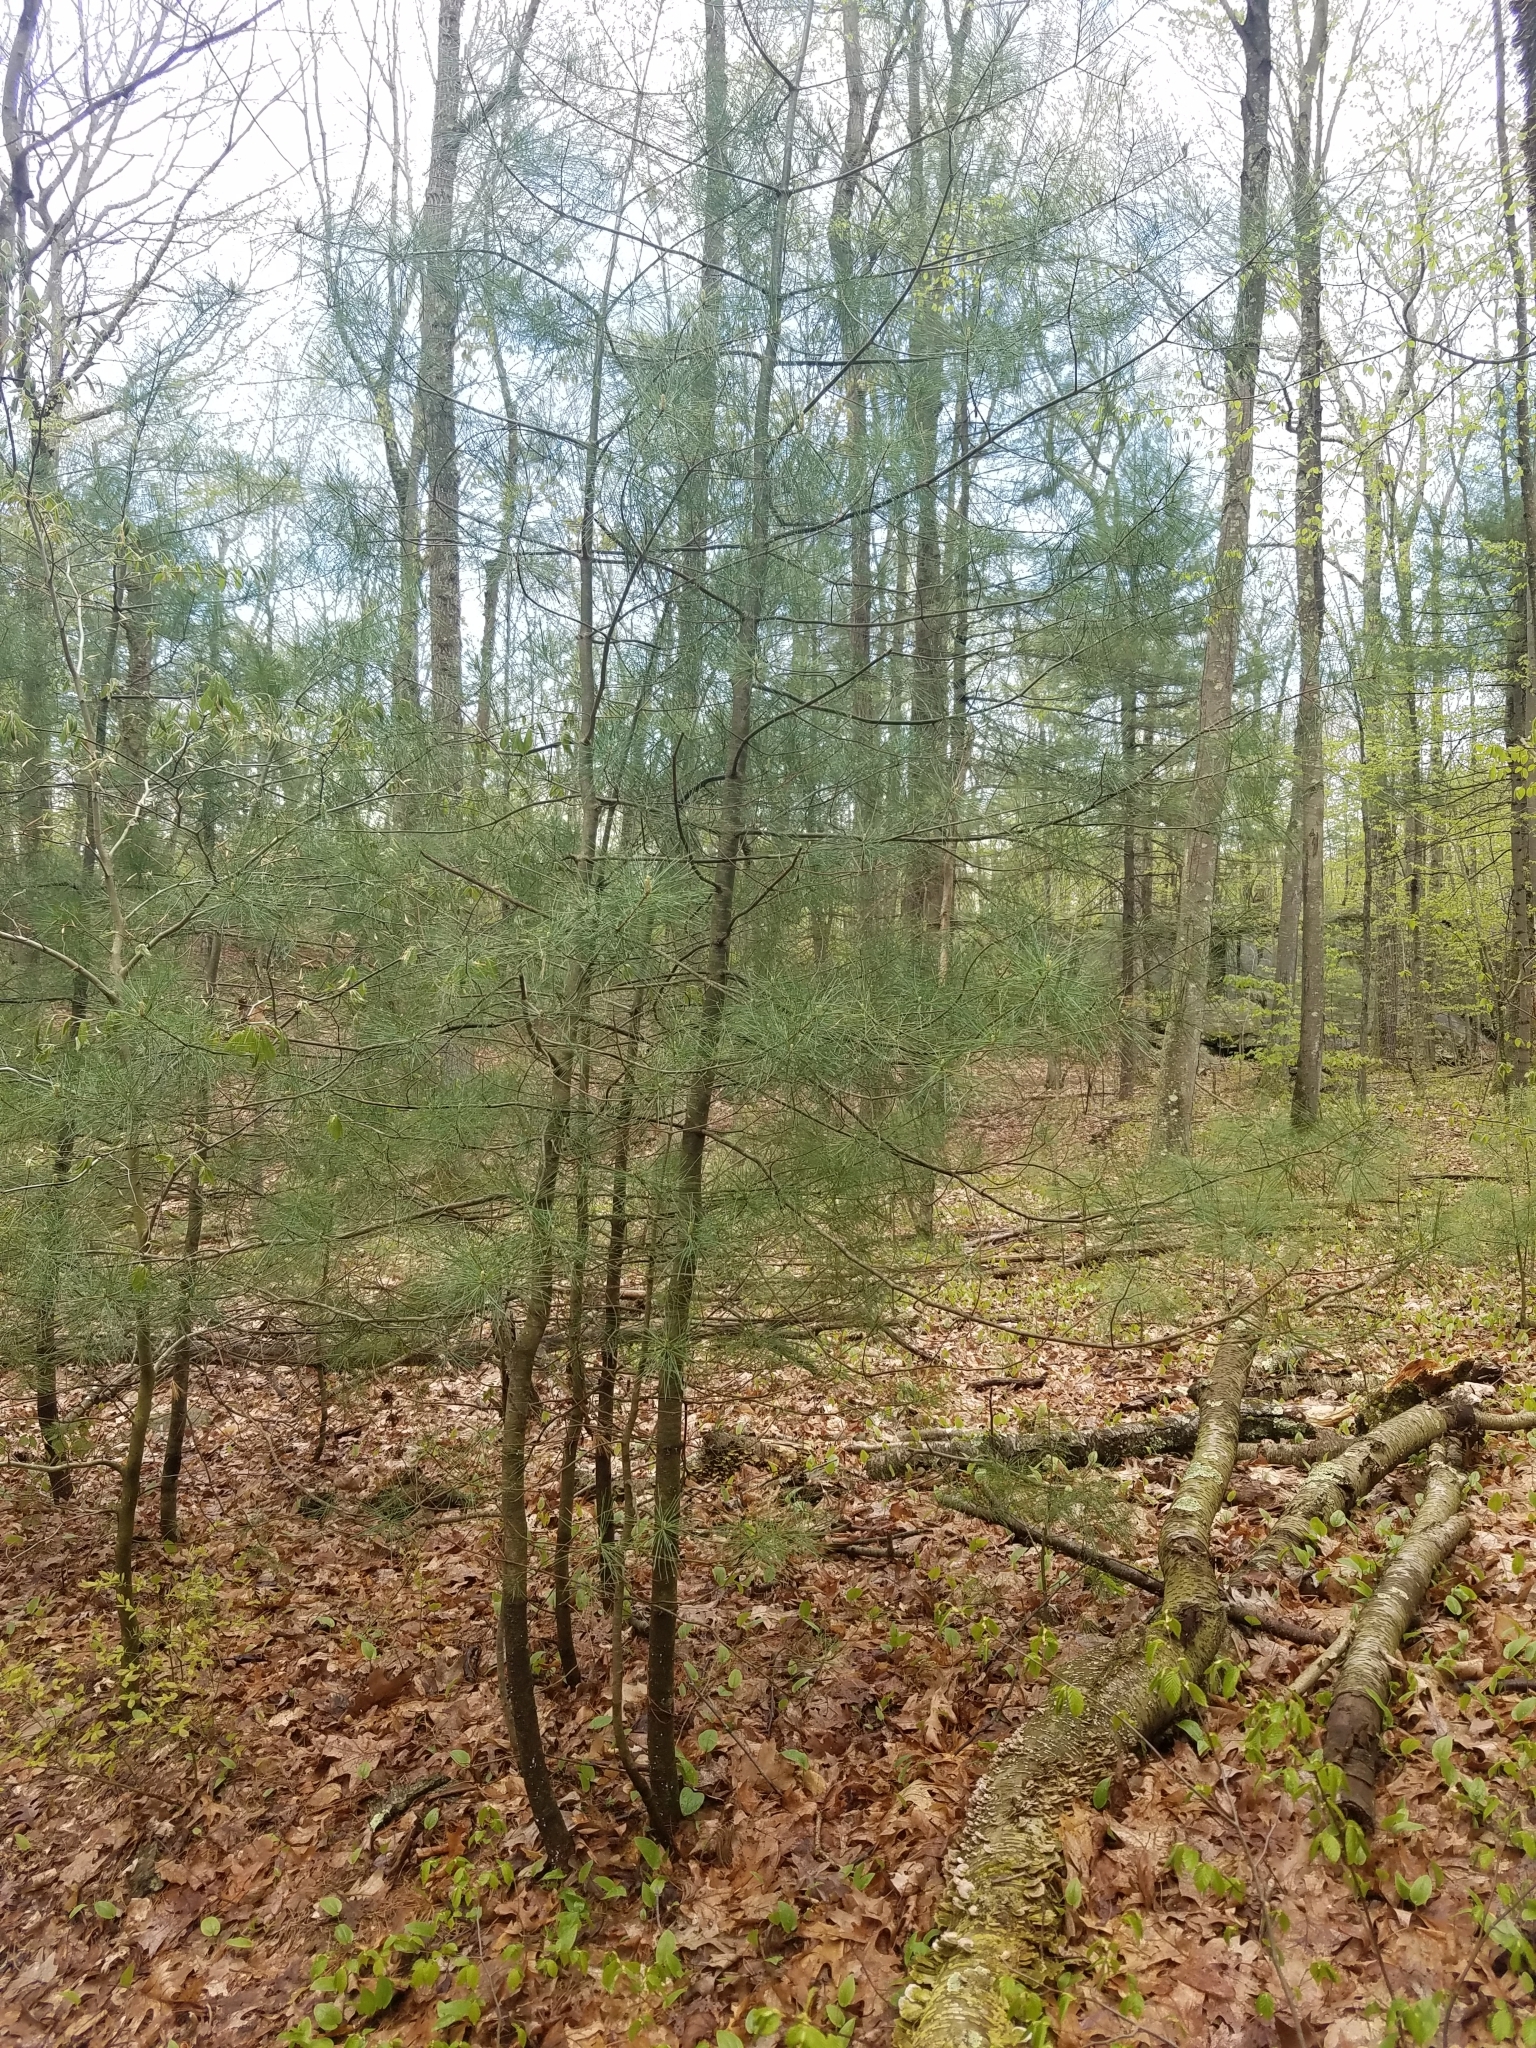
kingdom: Plantae
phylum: Tracheophyta
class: Pinopsida
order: Pinales
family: Pinaceae
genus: Pinus
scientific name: Pinus strobus
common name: Weymouth pine
